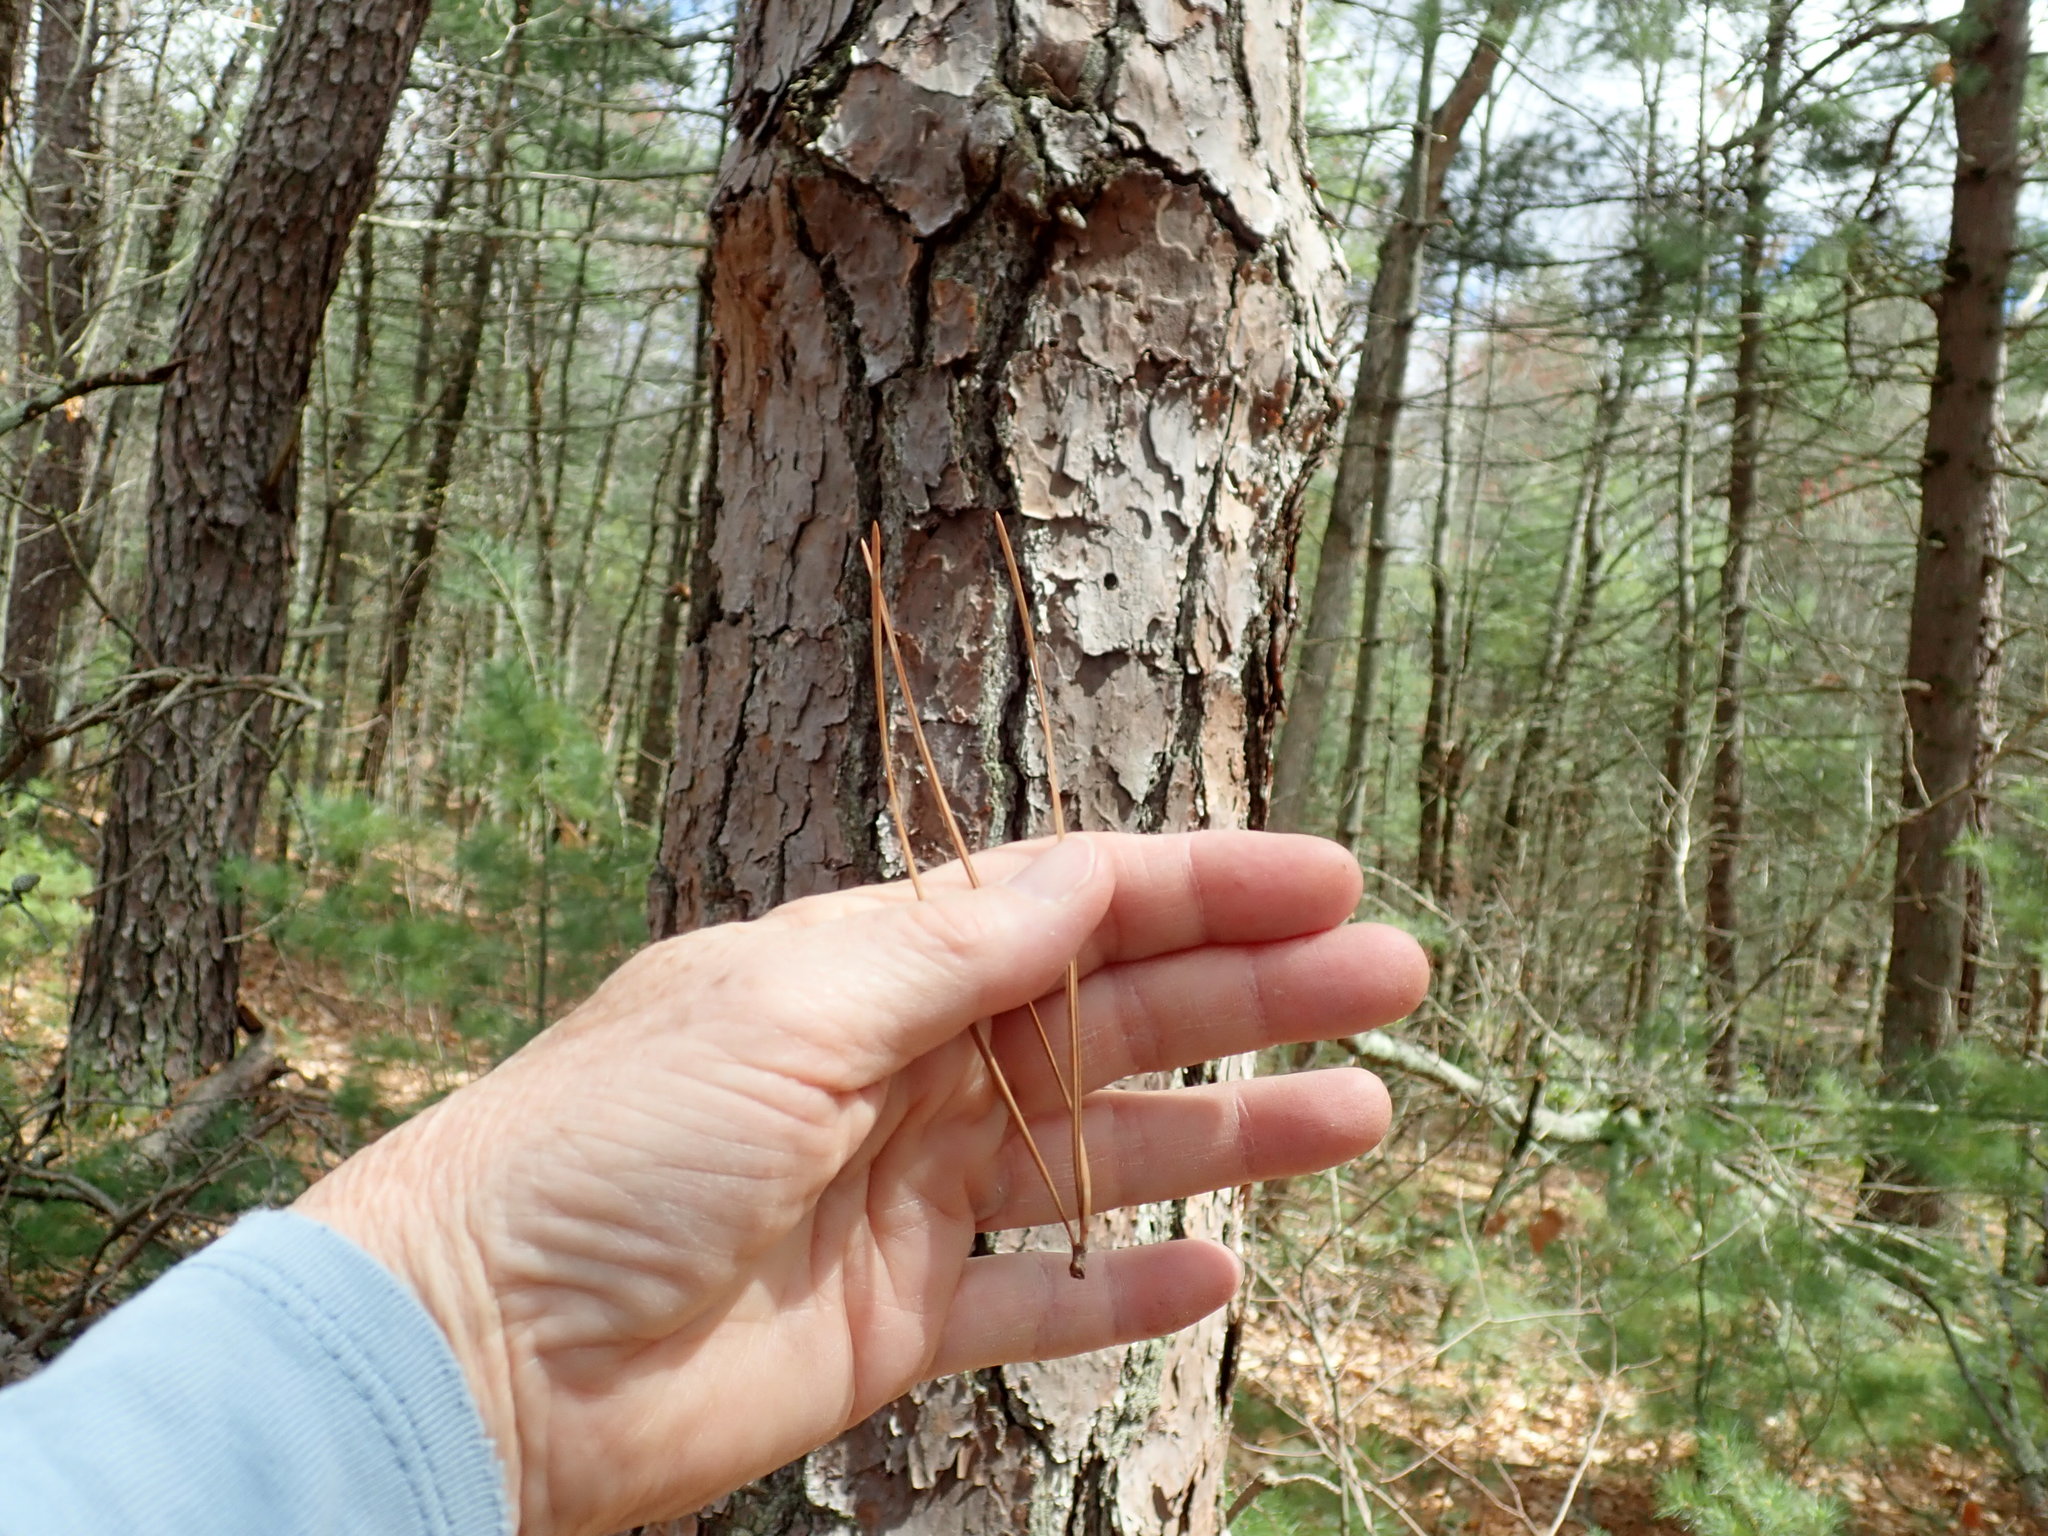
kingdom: Plantae
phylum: Tracheophyta
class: Pinopsida
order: Pinales
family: Pinaceae
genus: Pinus
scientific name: Pinus rigida
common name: Pitch pine
